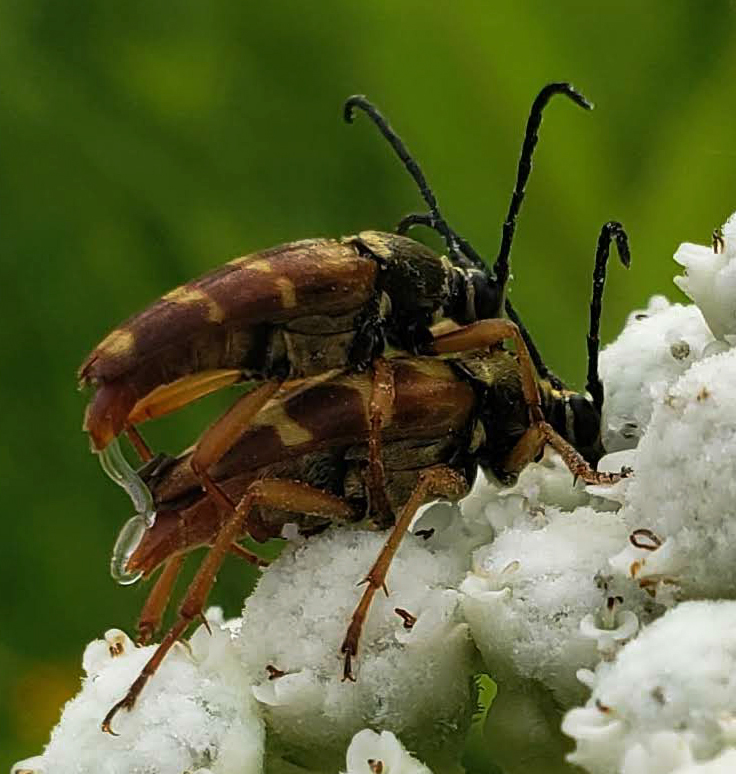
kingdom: Animalia
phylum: Arthropoda
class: Insecta
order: Coleoptera
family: Cerambycidae
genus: Typocerus
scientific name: Typocerus velutinus
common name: Banded longhorn beetle
